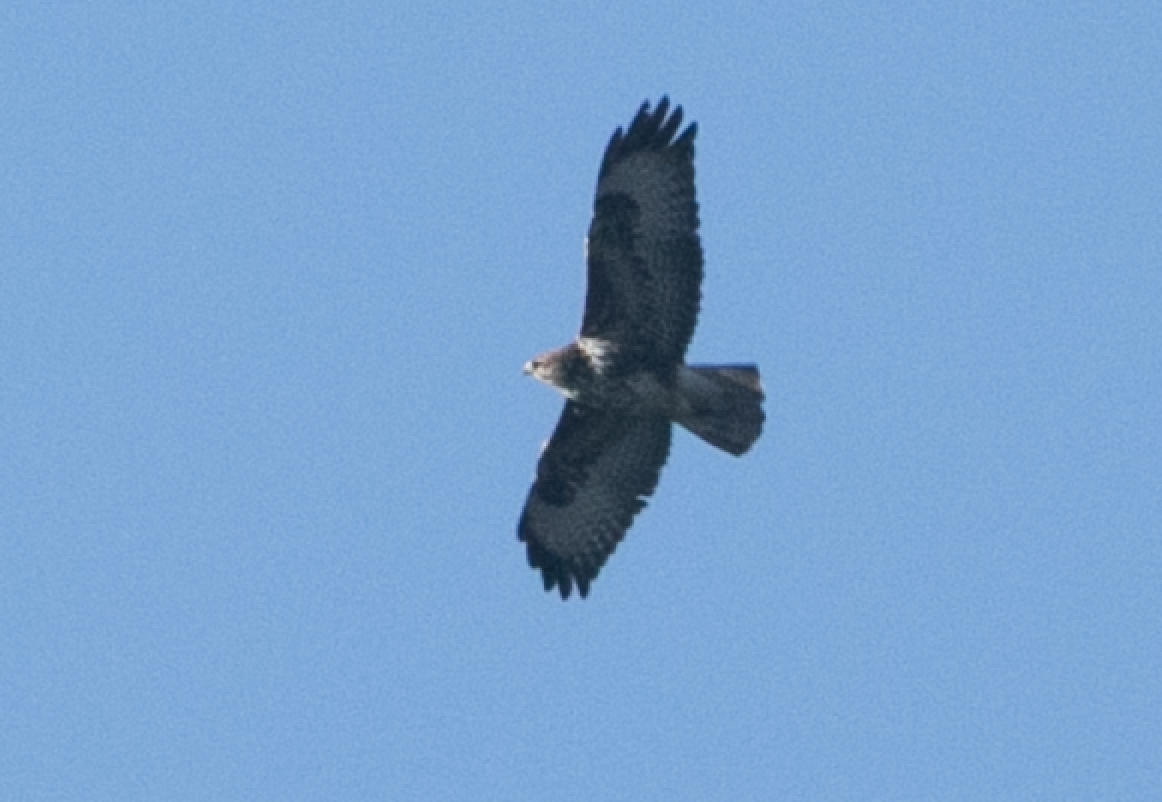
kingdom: Animalia
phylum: Chordata
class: Aves
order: Accipitriformes
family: Accipitridae
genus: Buteo
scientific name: Buteo buteo
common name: Common buzzard
